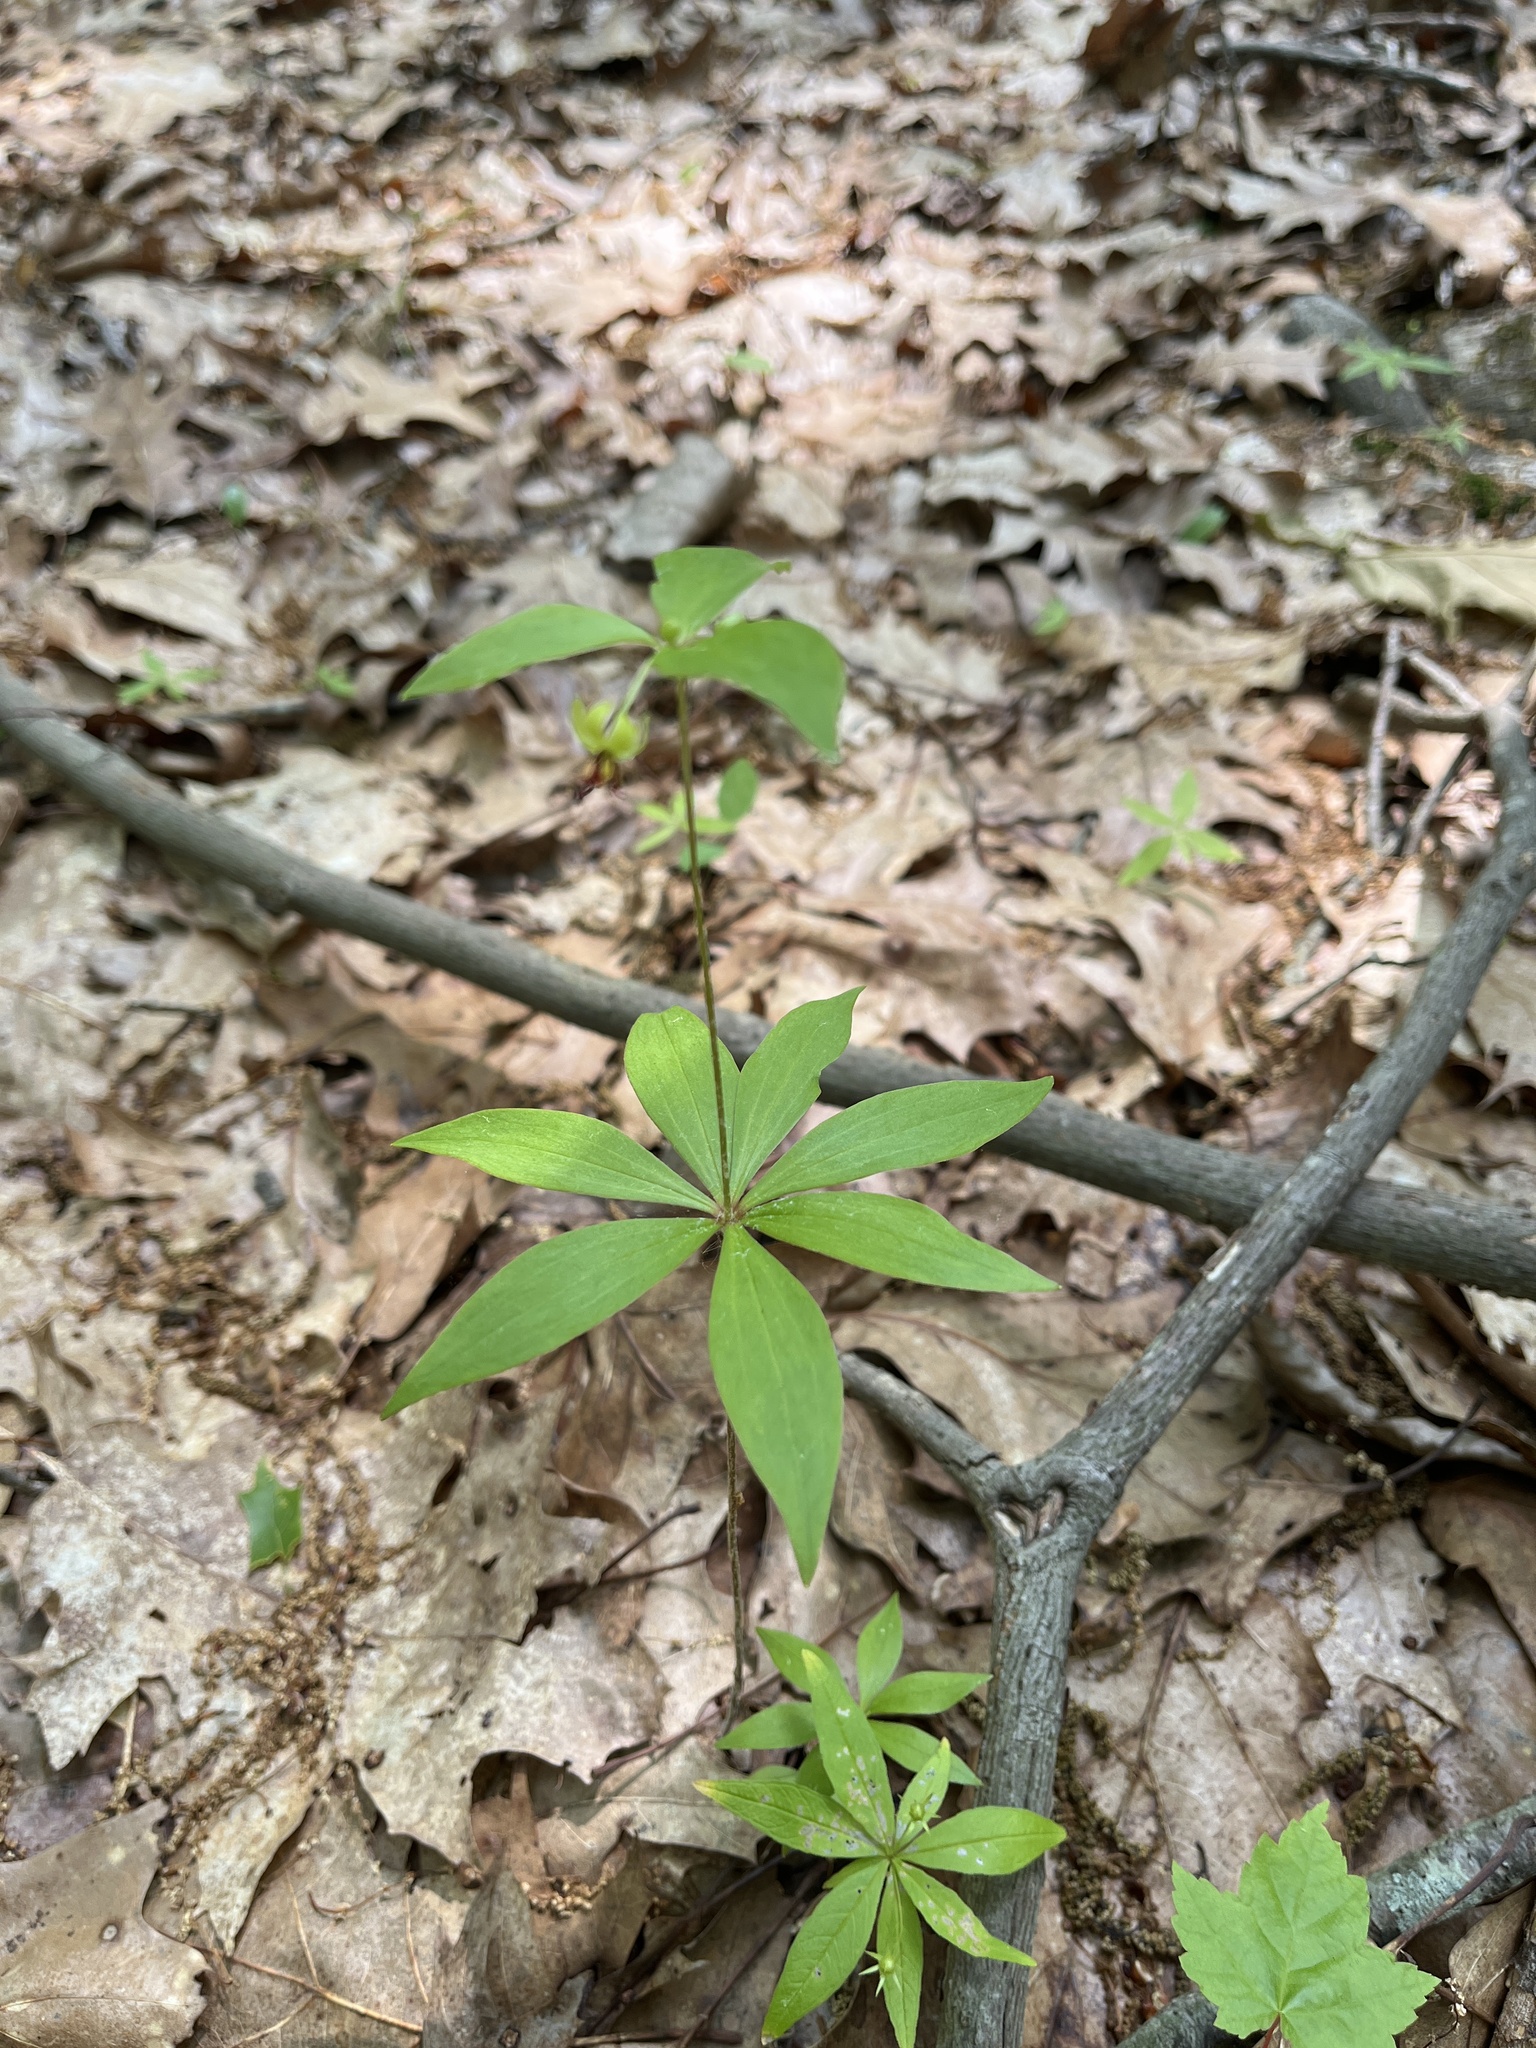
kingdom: Plantae
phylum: Tracheophyta
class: Liliopsida
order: Liliales
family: Liliaceae
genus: Medeola
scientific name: Medeola virginiana
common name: Indian cucumber-root
